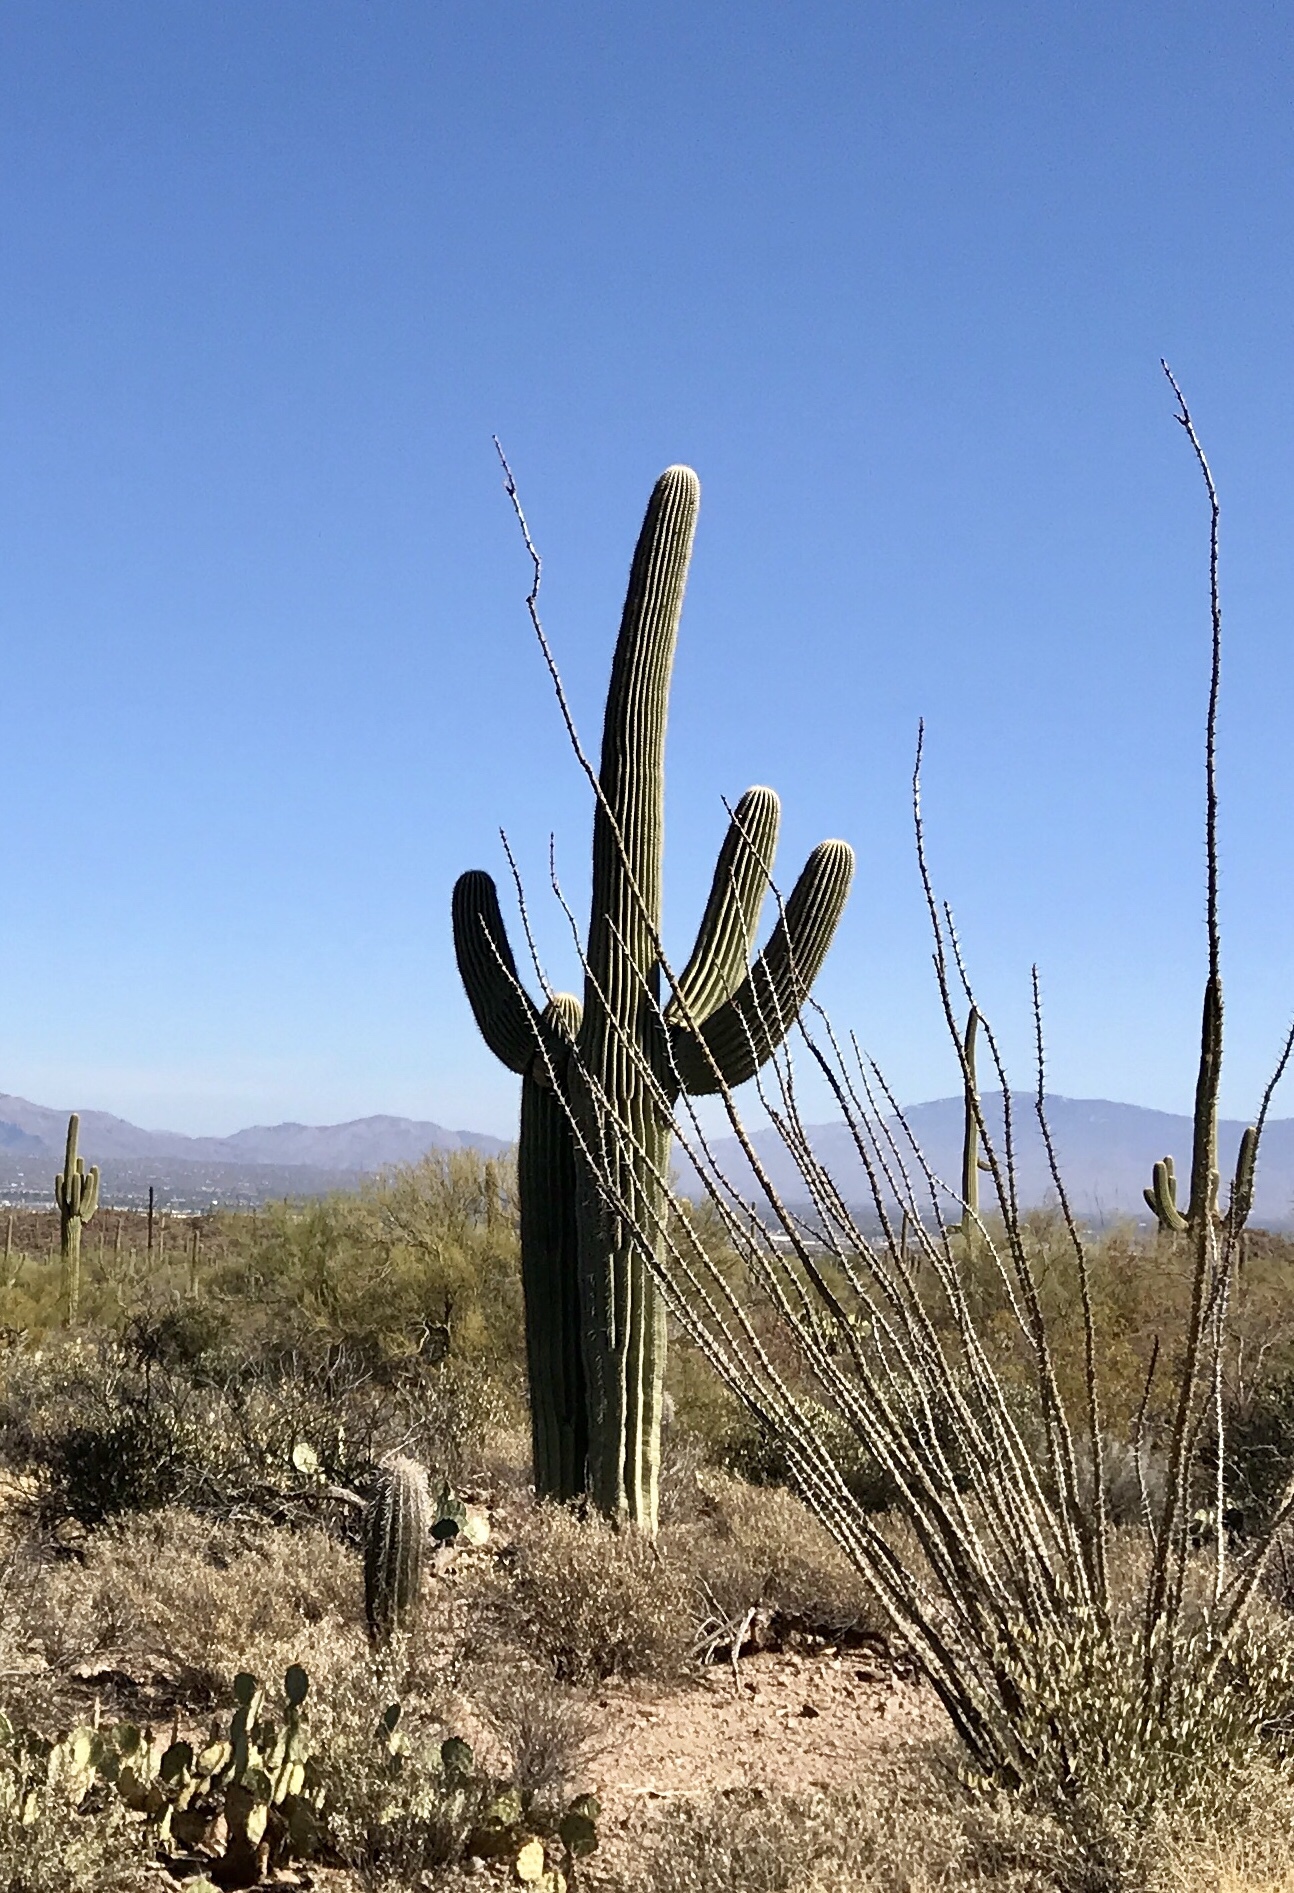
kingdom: Plantae
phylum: Tracheophyta
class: Magnoliopsida
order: Caryophyllales
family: Cactaceae
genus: Carnegiea
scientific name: Carnegiea gigantea
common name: Saguaro
